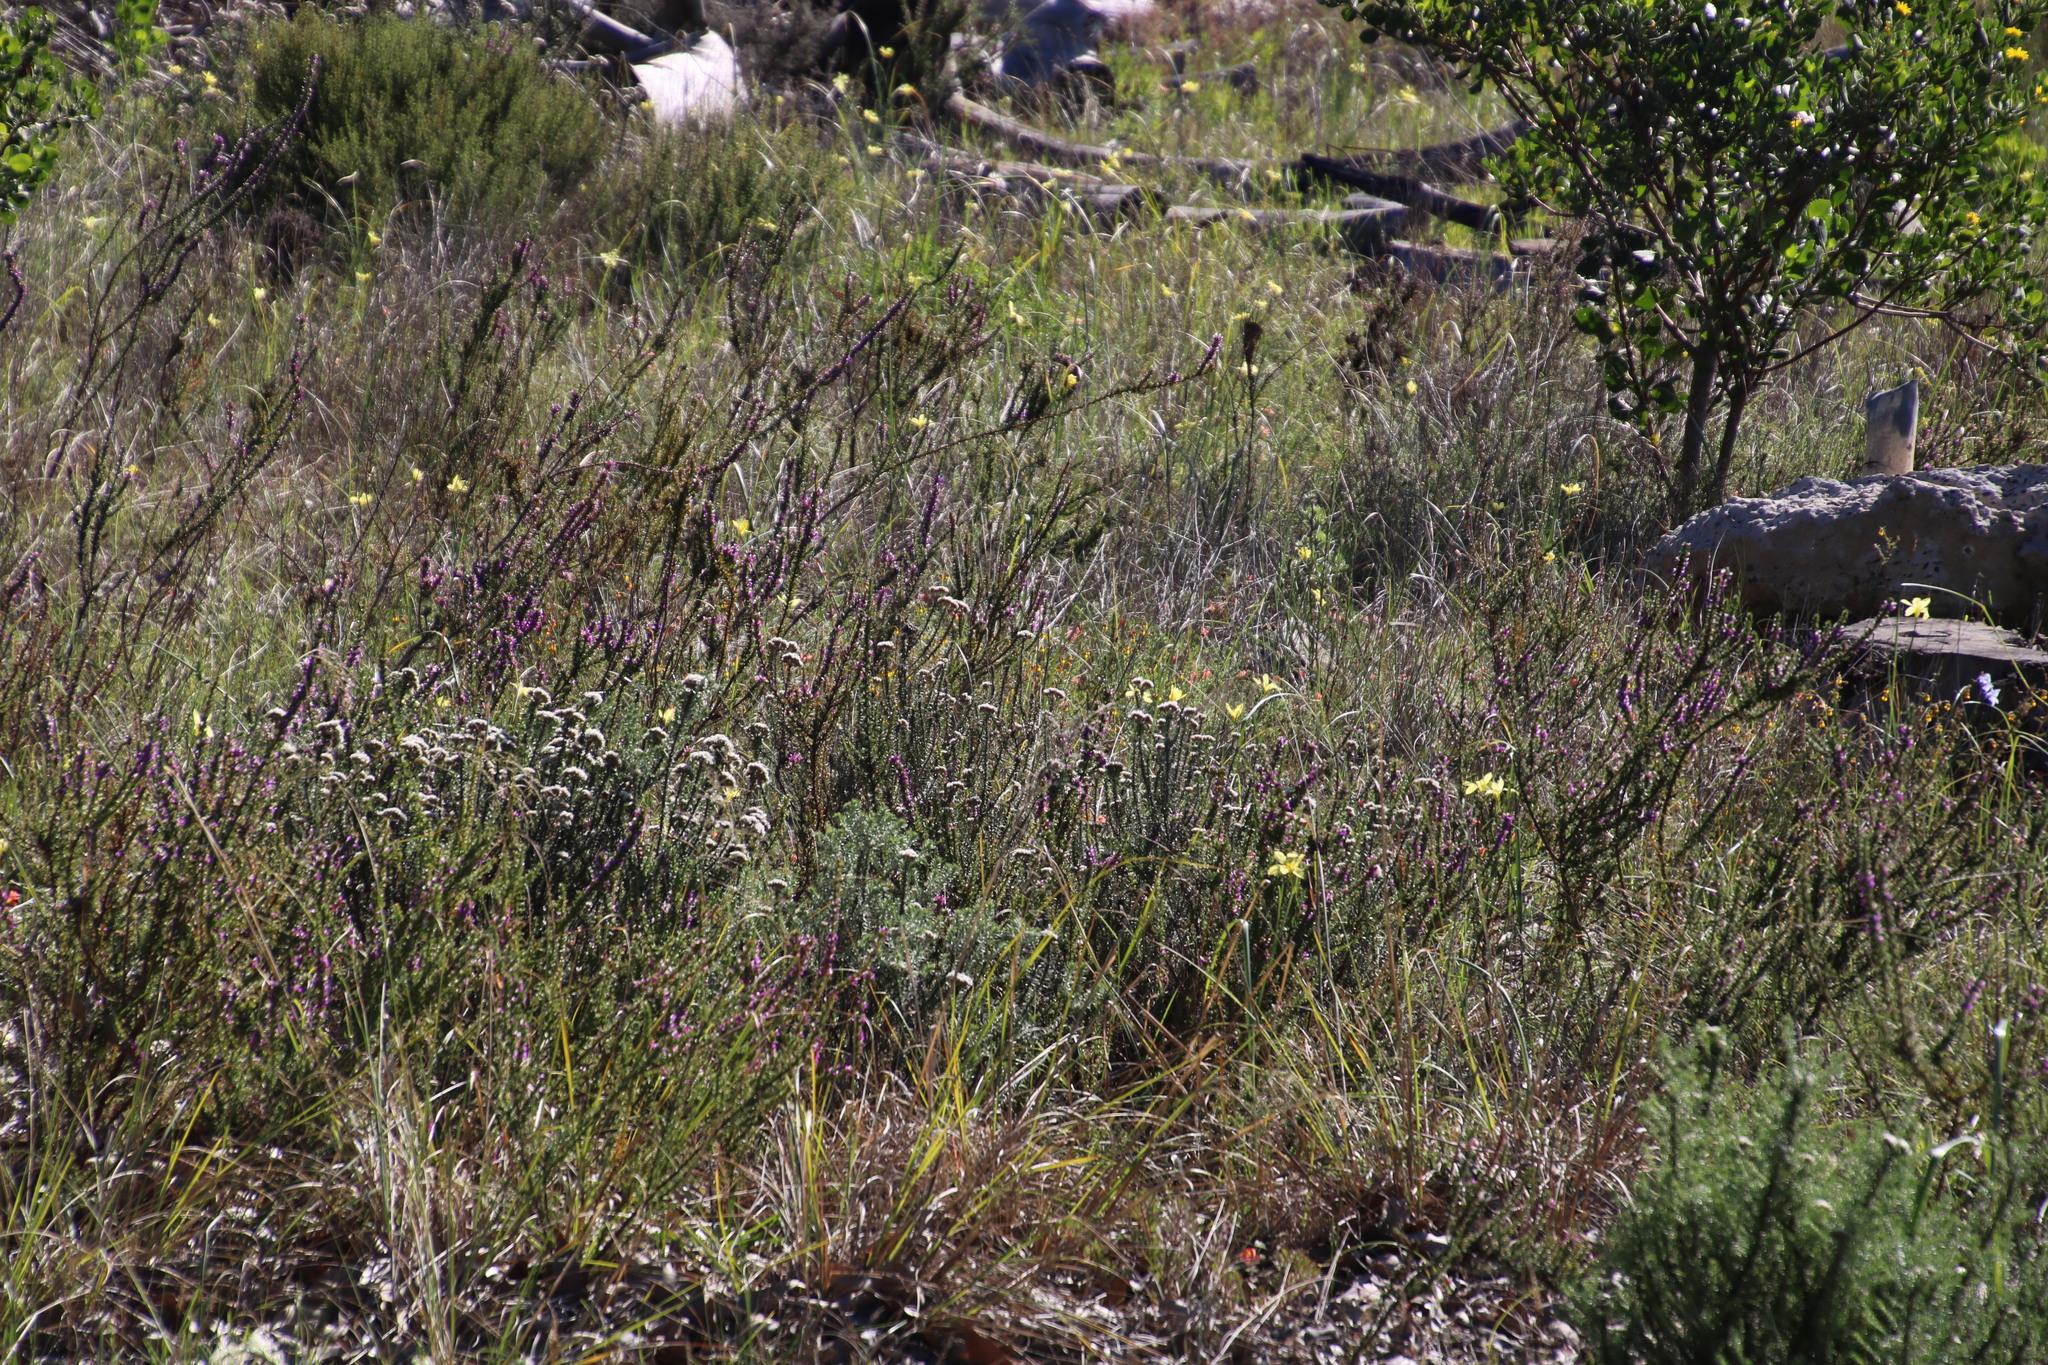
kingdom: Plantae
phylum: Tracheophyta
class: Liliopsida
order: Asparagales
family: Iridaceae
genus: Moraea
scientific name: Moraea collina
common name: Cape-tulip
